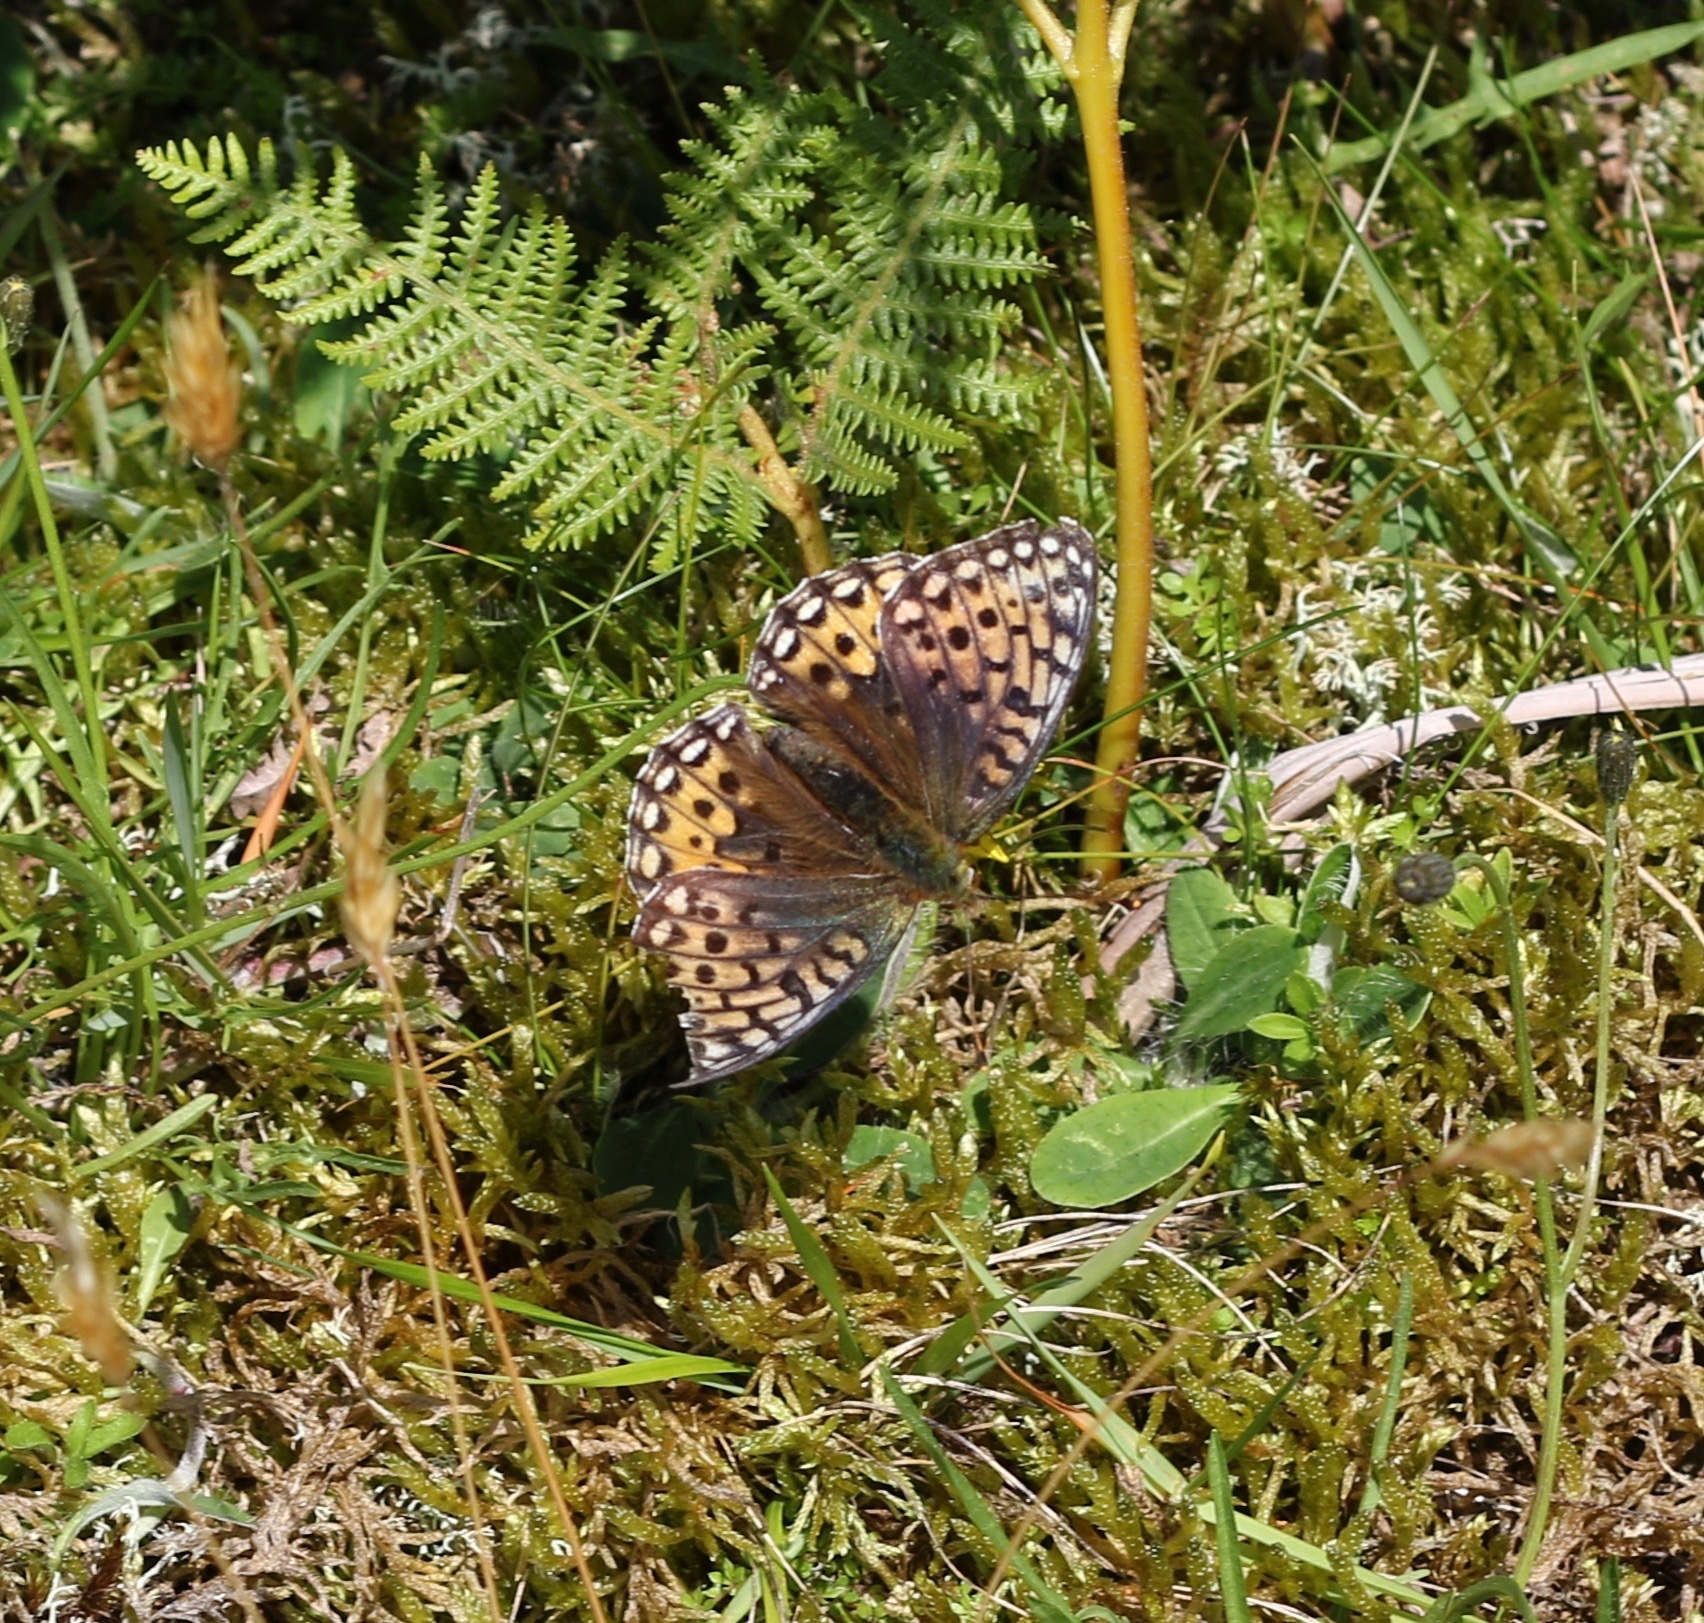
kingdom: Animalia
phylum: Arthropoda
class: Insecta
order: Lepidoptera
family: Nymphalidae
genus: Speyeria
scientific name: Speyeria aglaja
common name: Dark green fritillary
